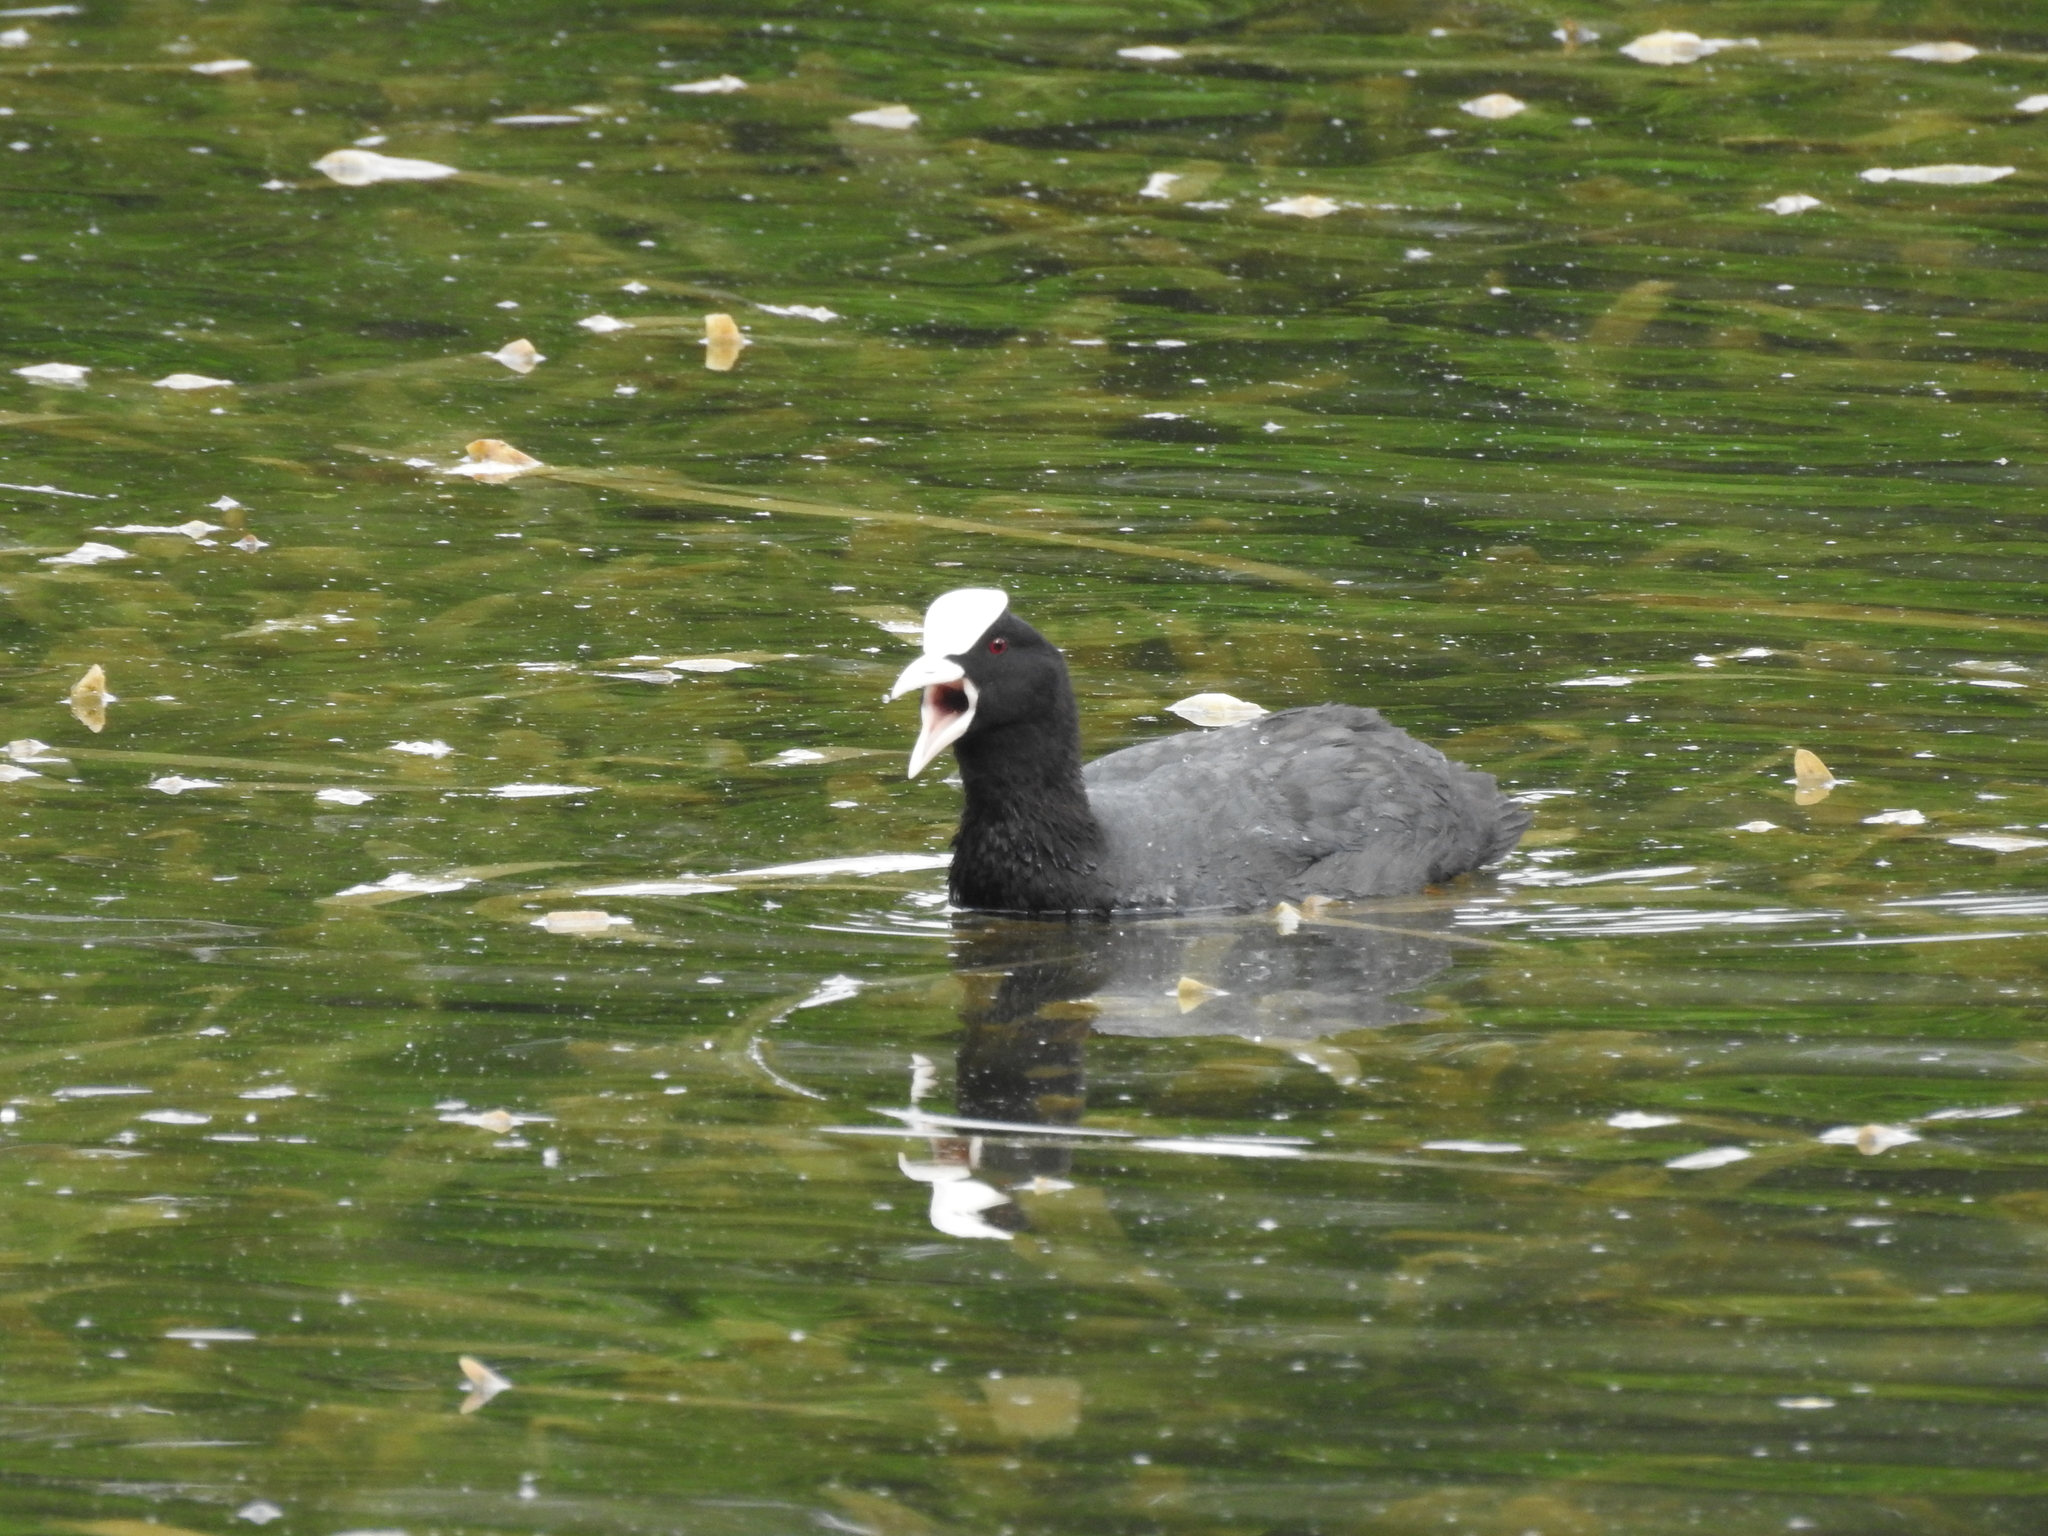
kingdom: Animalia
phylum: Chordata
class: Aves
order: Gruiformes
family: Rallidae
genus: Fulica
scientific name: Fulica atra
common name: Eurasian coot
